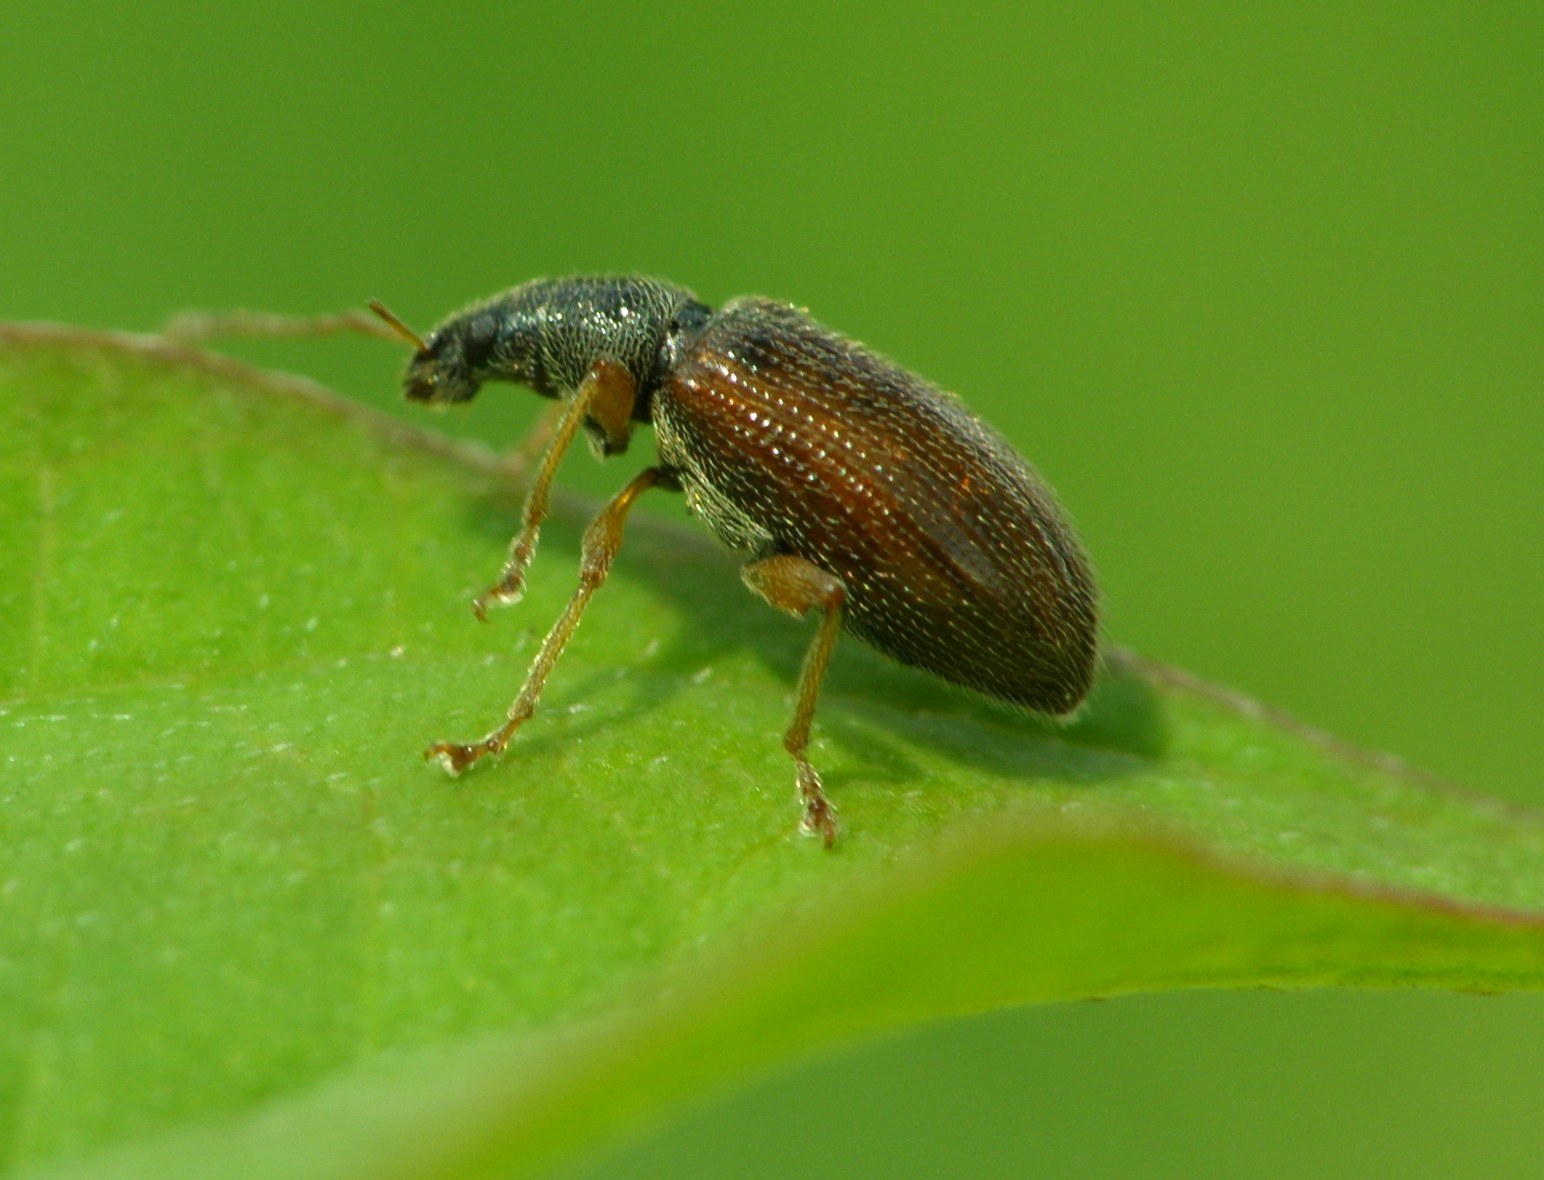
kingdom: Animalia
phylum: Arthropoda
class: Insecta
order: Coleoptera
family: Curculionidae
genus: Phyllobius
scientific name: Phyllobius oblongus
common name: Brown leaf weevil
